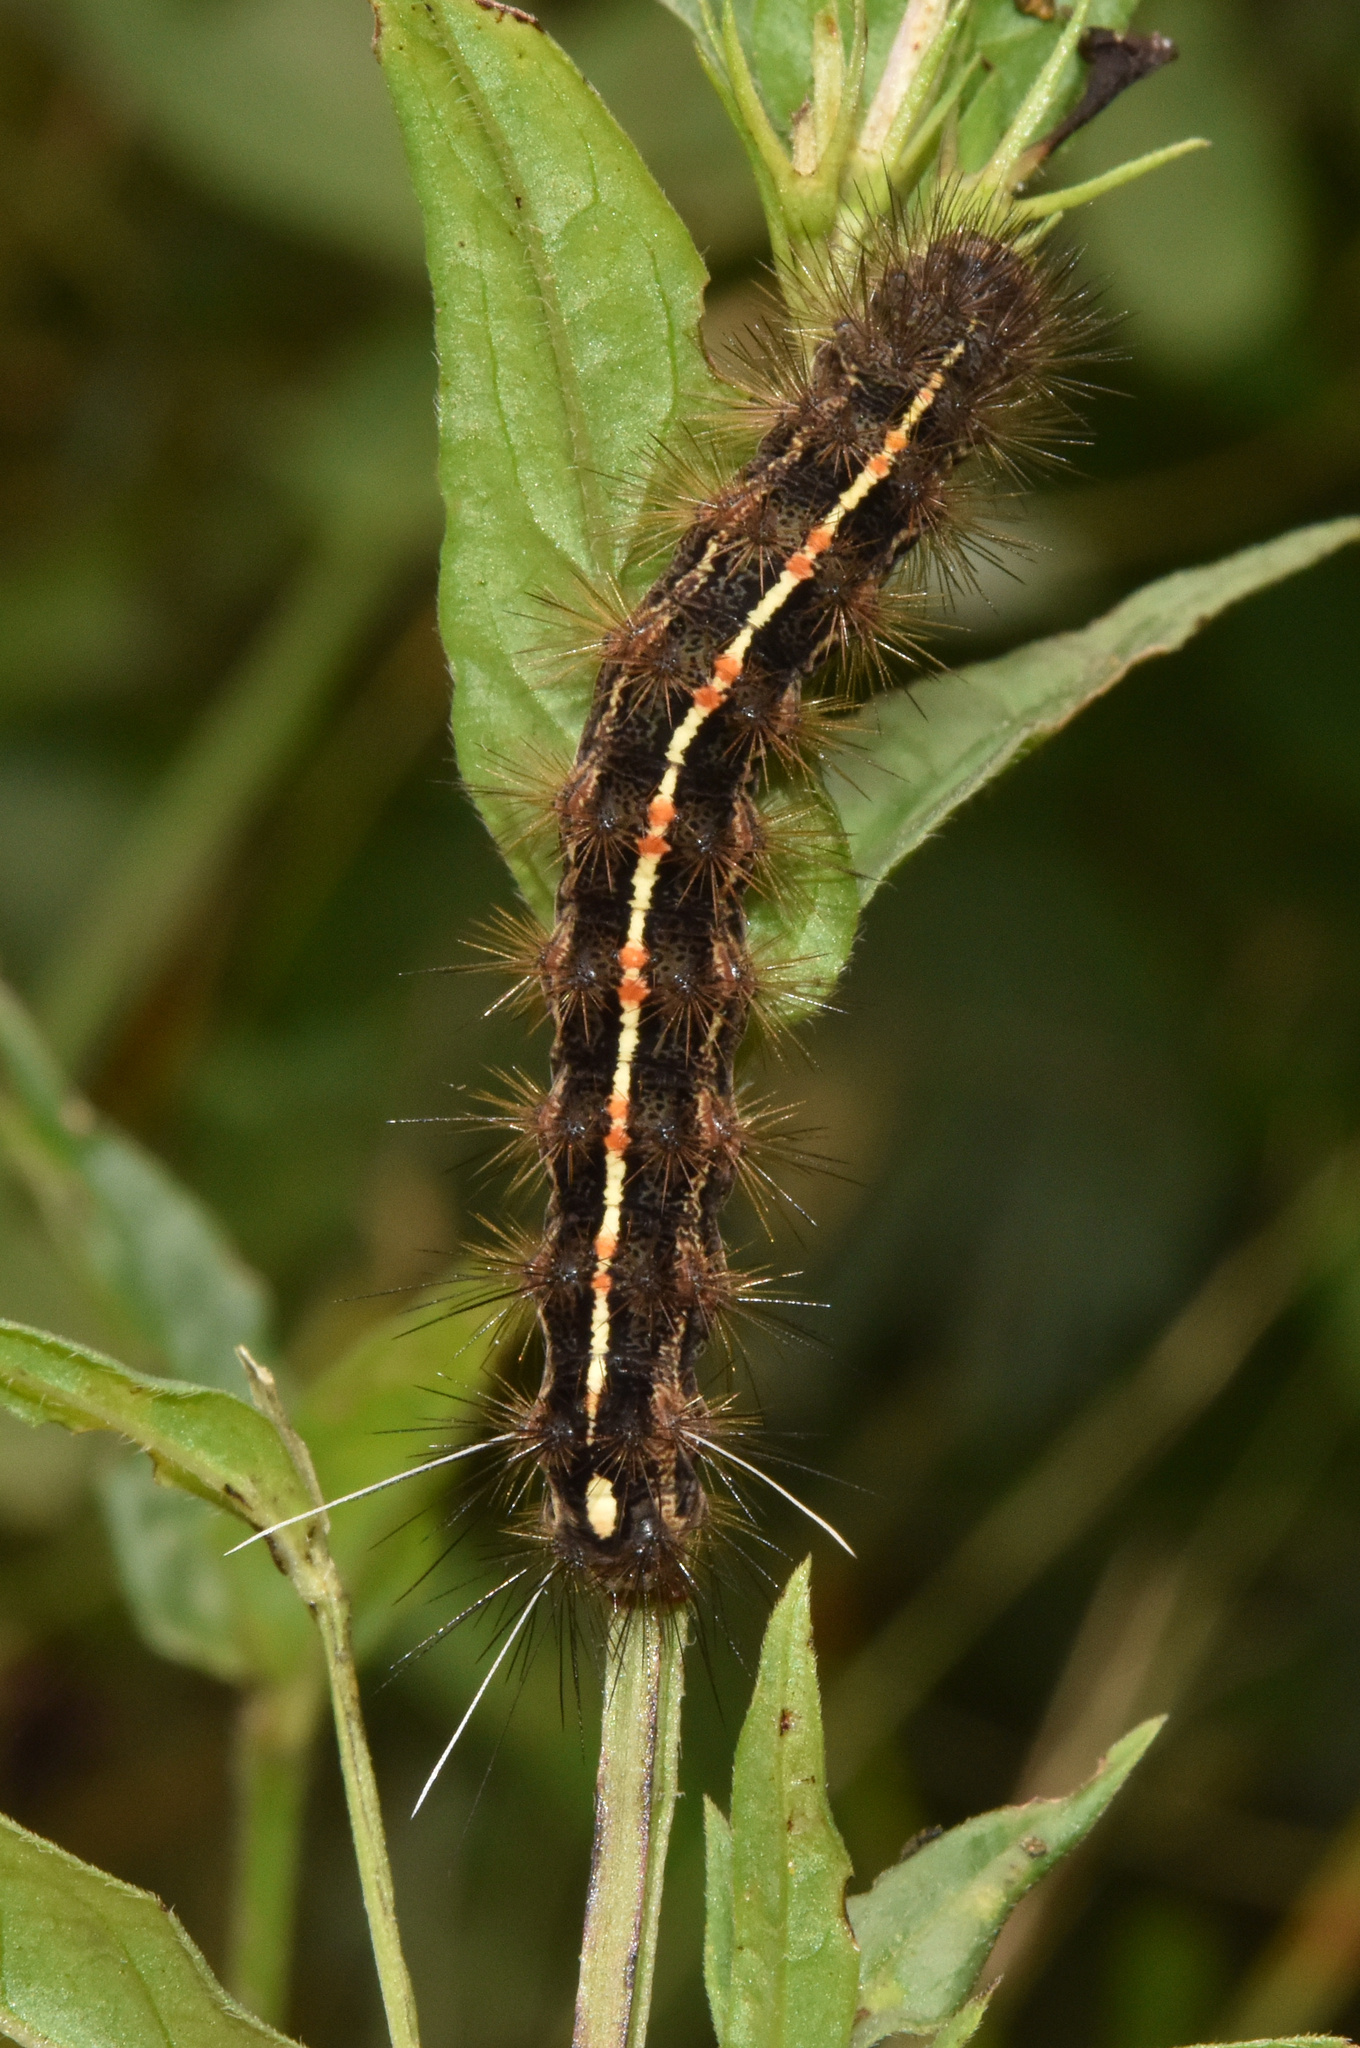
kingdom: Animalia
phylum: Arthropoda
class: Insecta
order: Lepidoptera
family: Erebidae
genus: Ustjuzhania
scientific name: Ustjuzhania lineata
